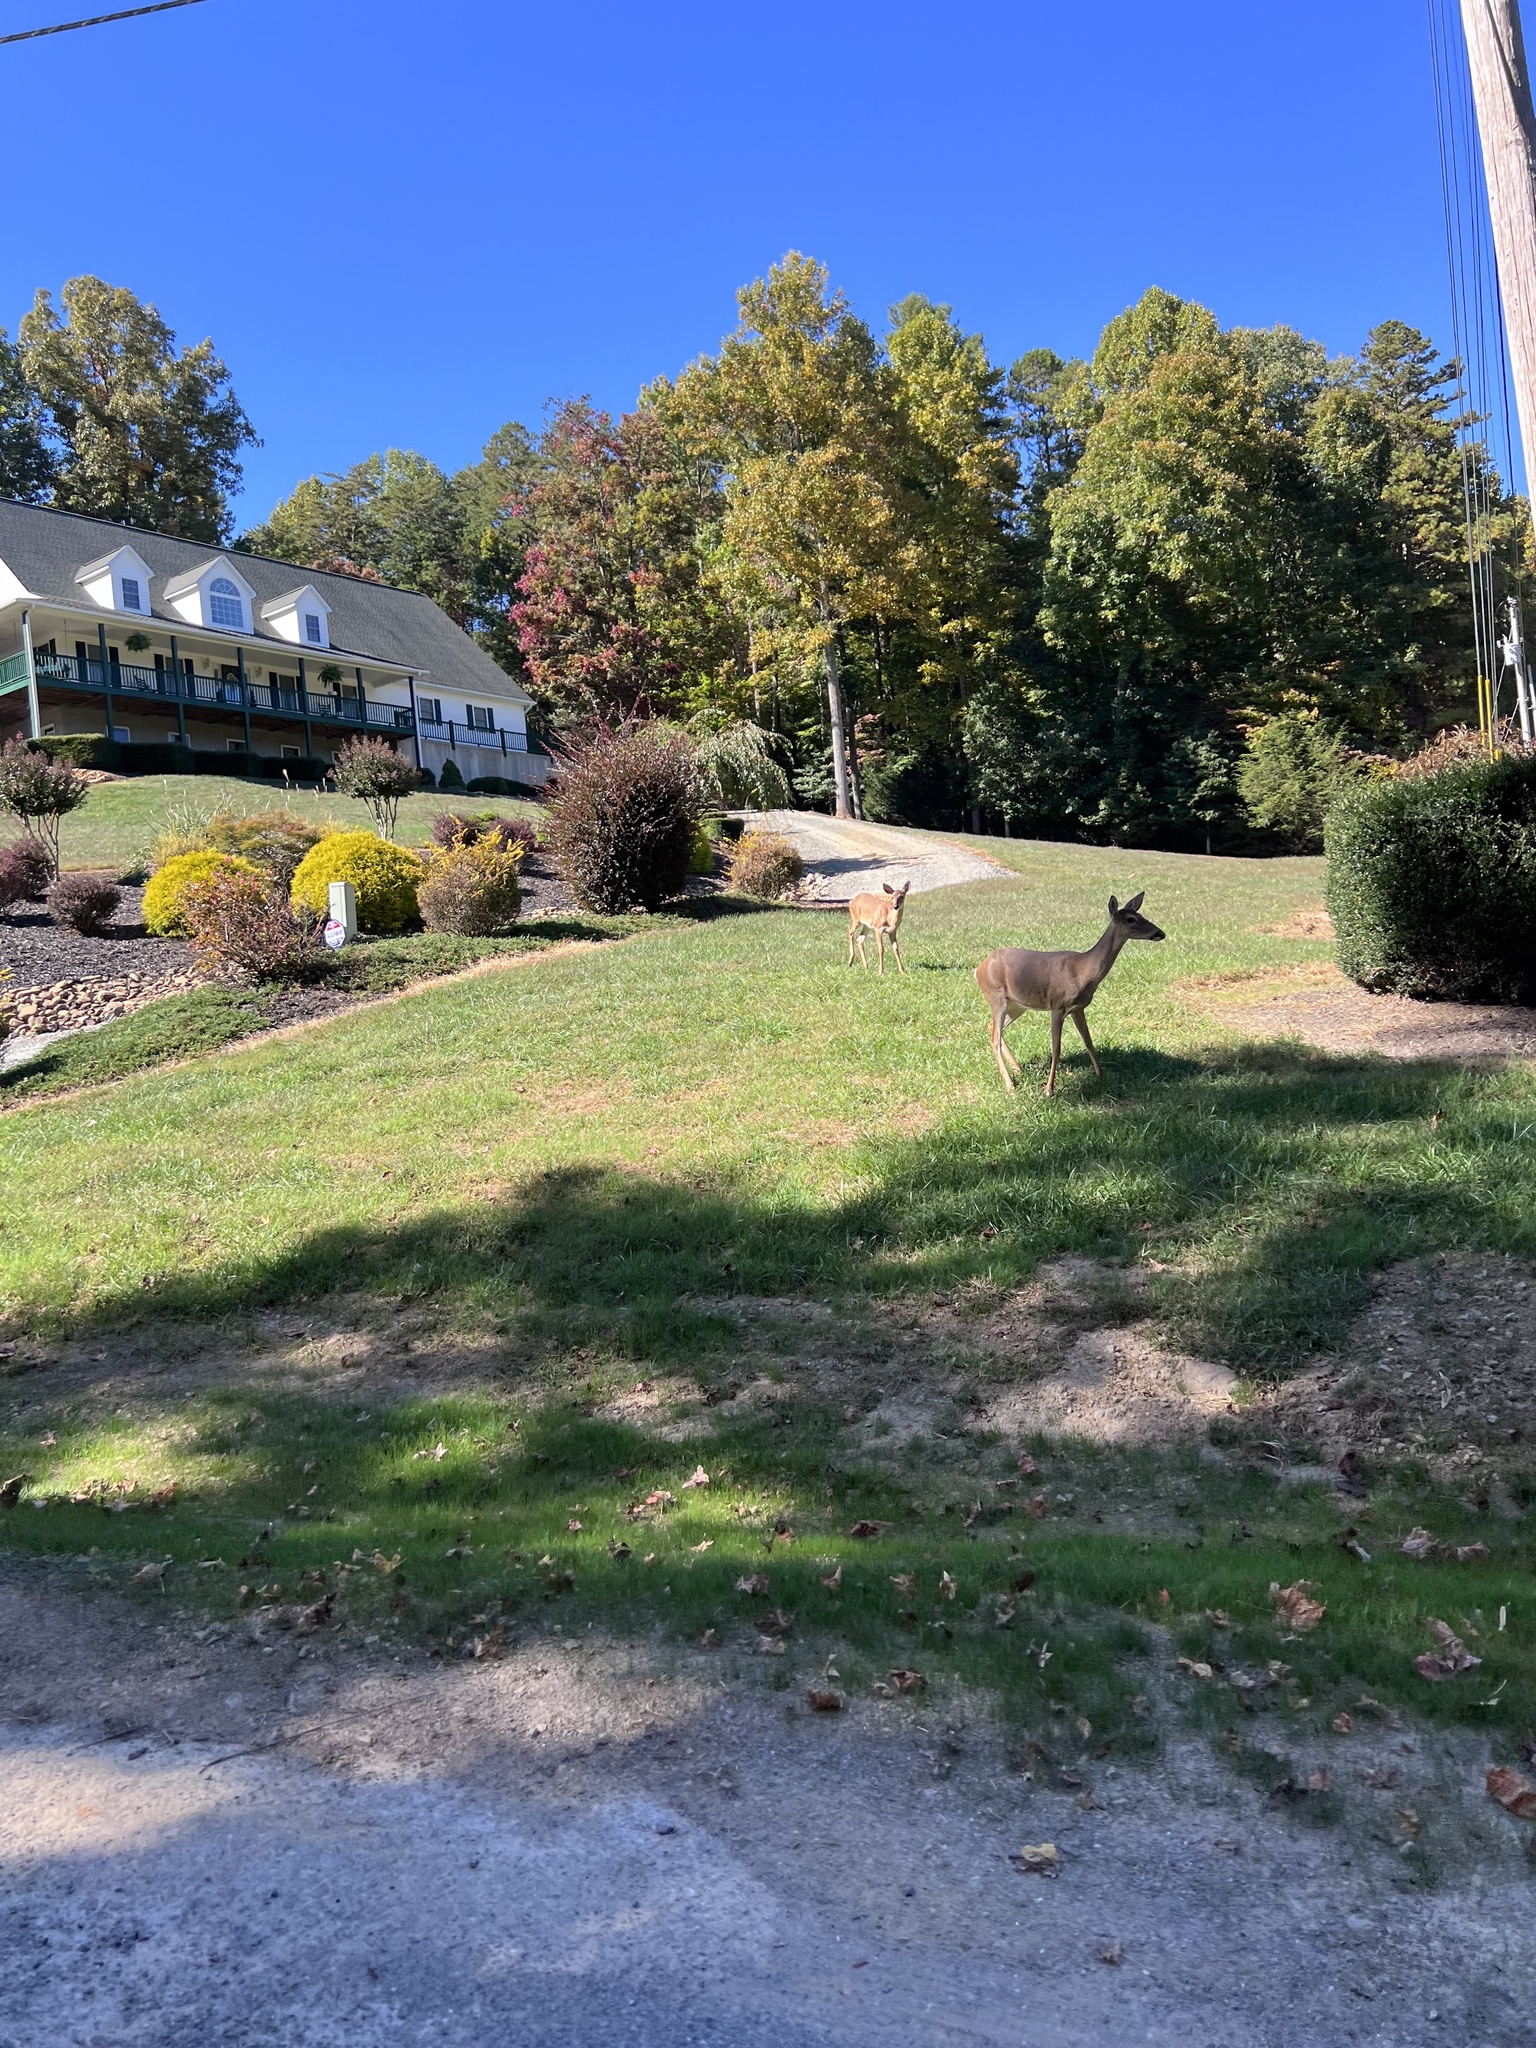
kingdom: Animalia
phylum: Chordata
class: Mammalia
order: Artiodactyla
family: Cervidae
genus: Odocoileus
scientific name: Odocoileus virginianus
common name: White-tailed deer
